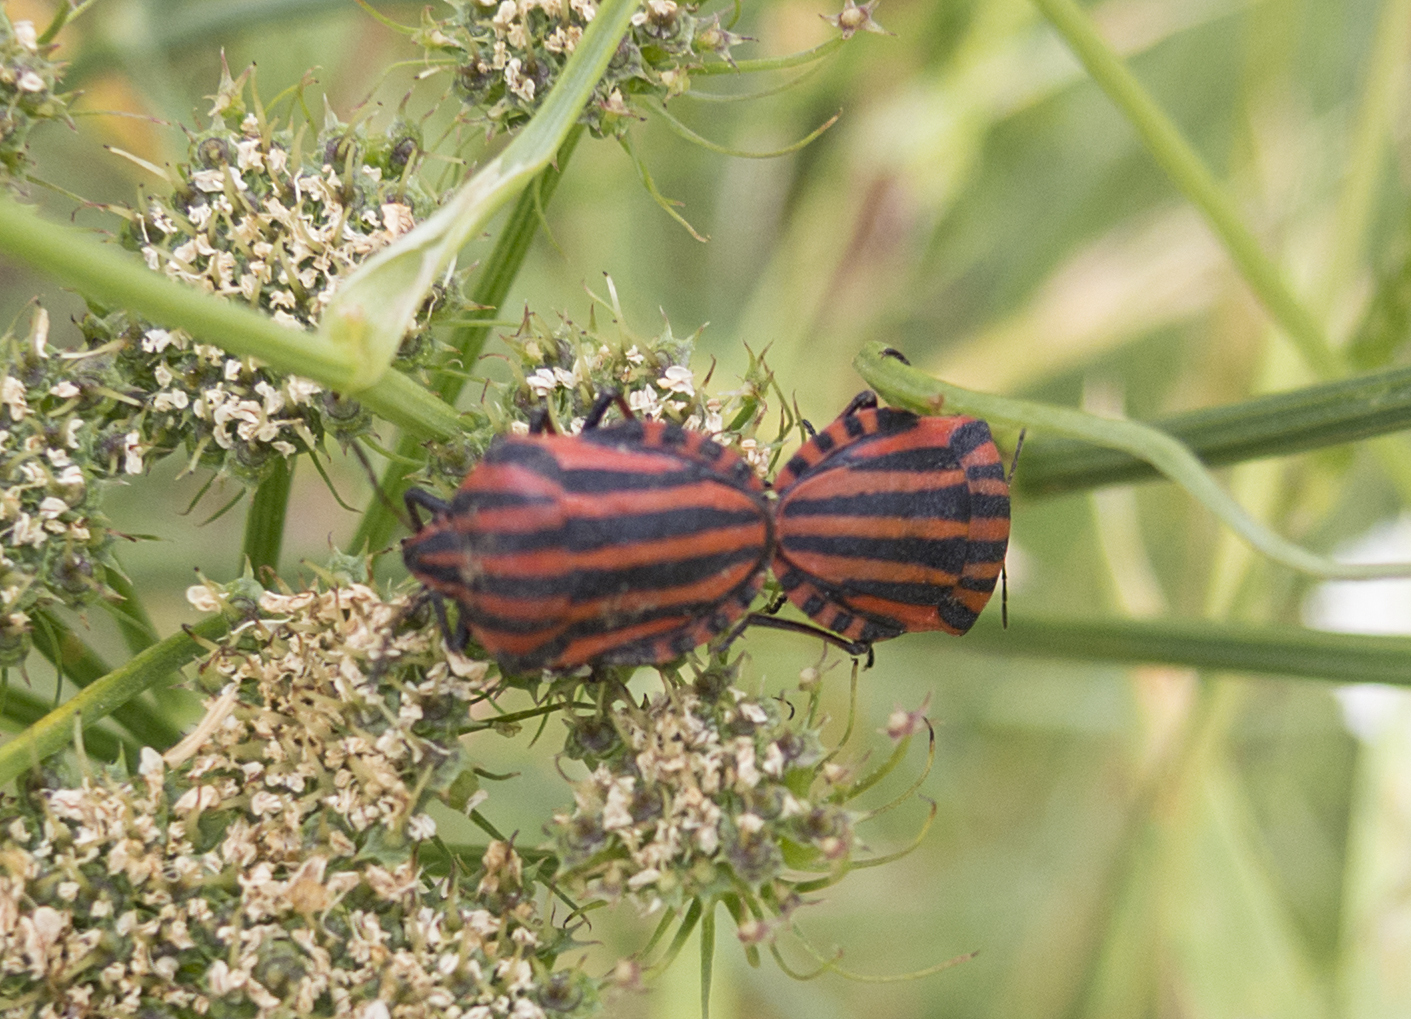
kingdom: Animalia
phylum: Arthropoda
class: Insecta
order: Hemiptera
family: Pentatomidae
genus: Graphosoma
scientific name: Graphosoma italicum
